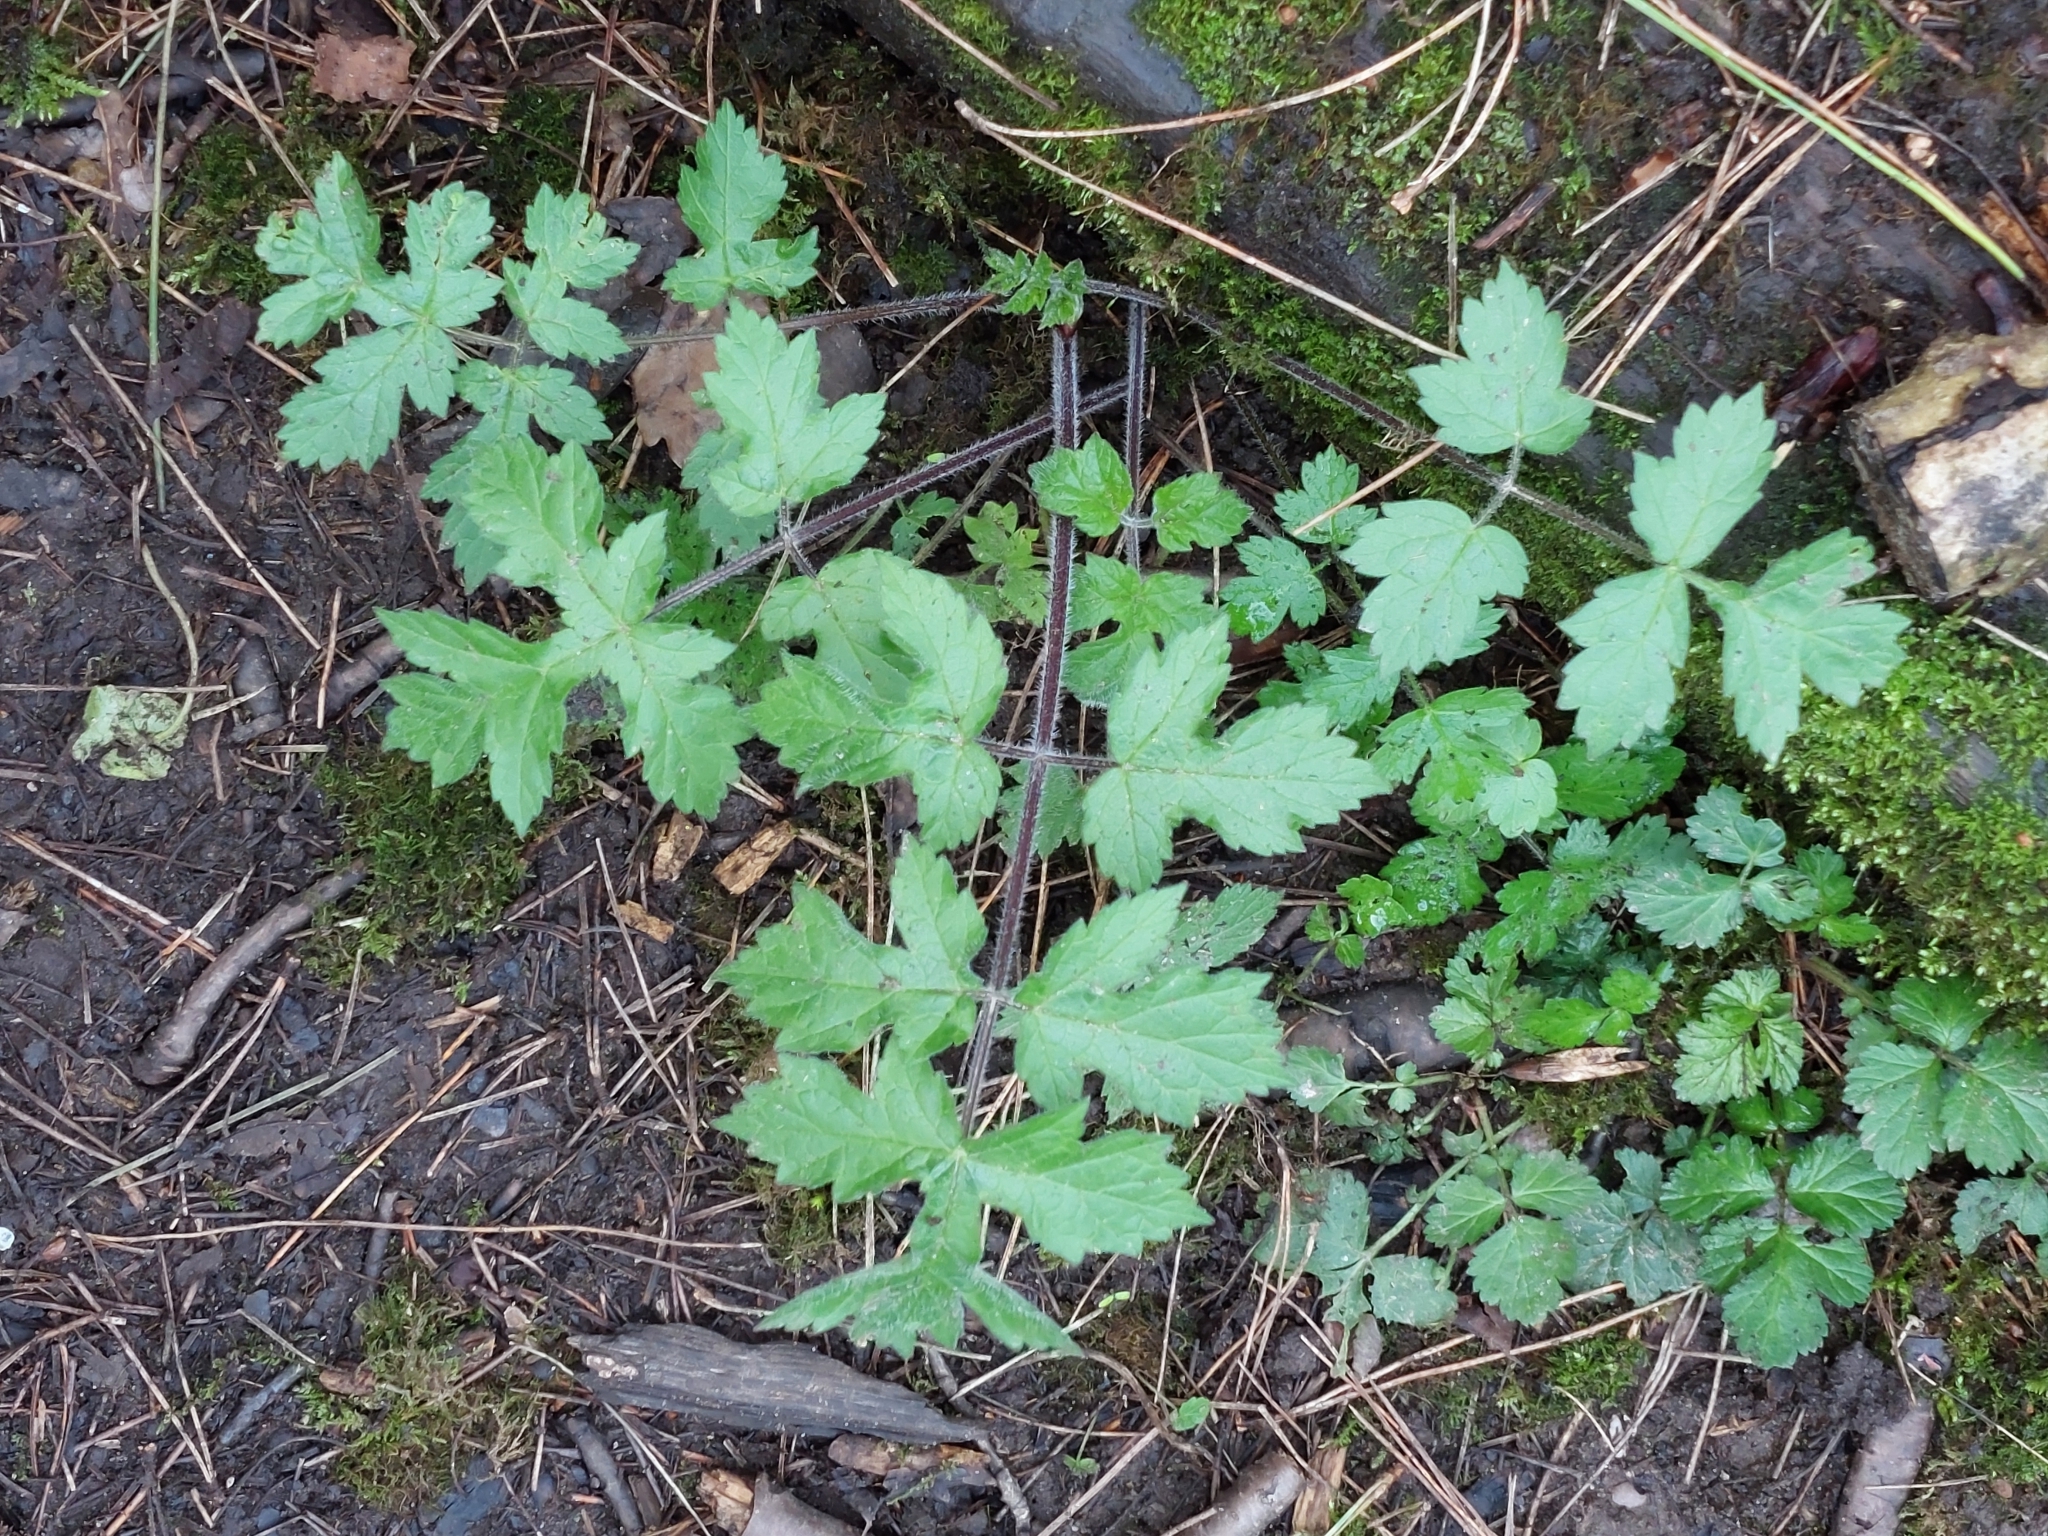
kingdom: Plantae
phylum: Tracheophyta
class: Magnoliopsida
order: Apiales
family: Apiaceae
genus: Heracleum
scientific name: Heracleum sphondylium
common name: Hogweed
